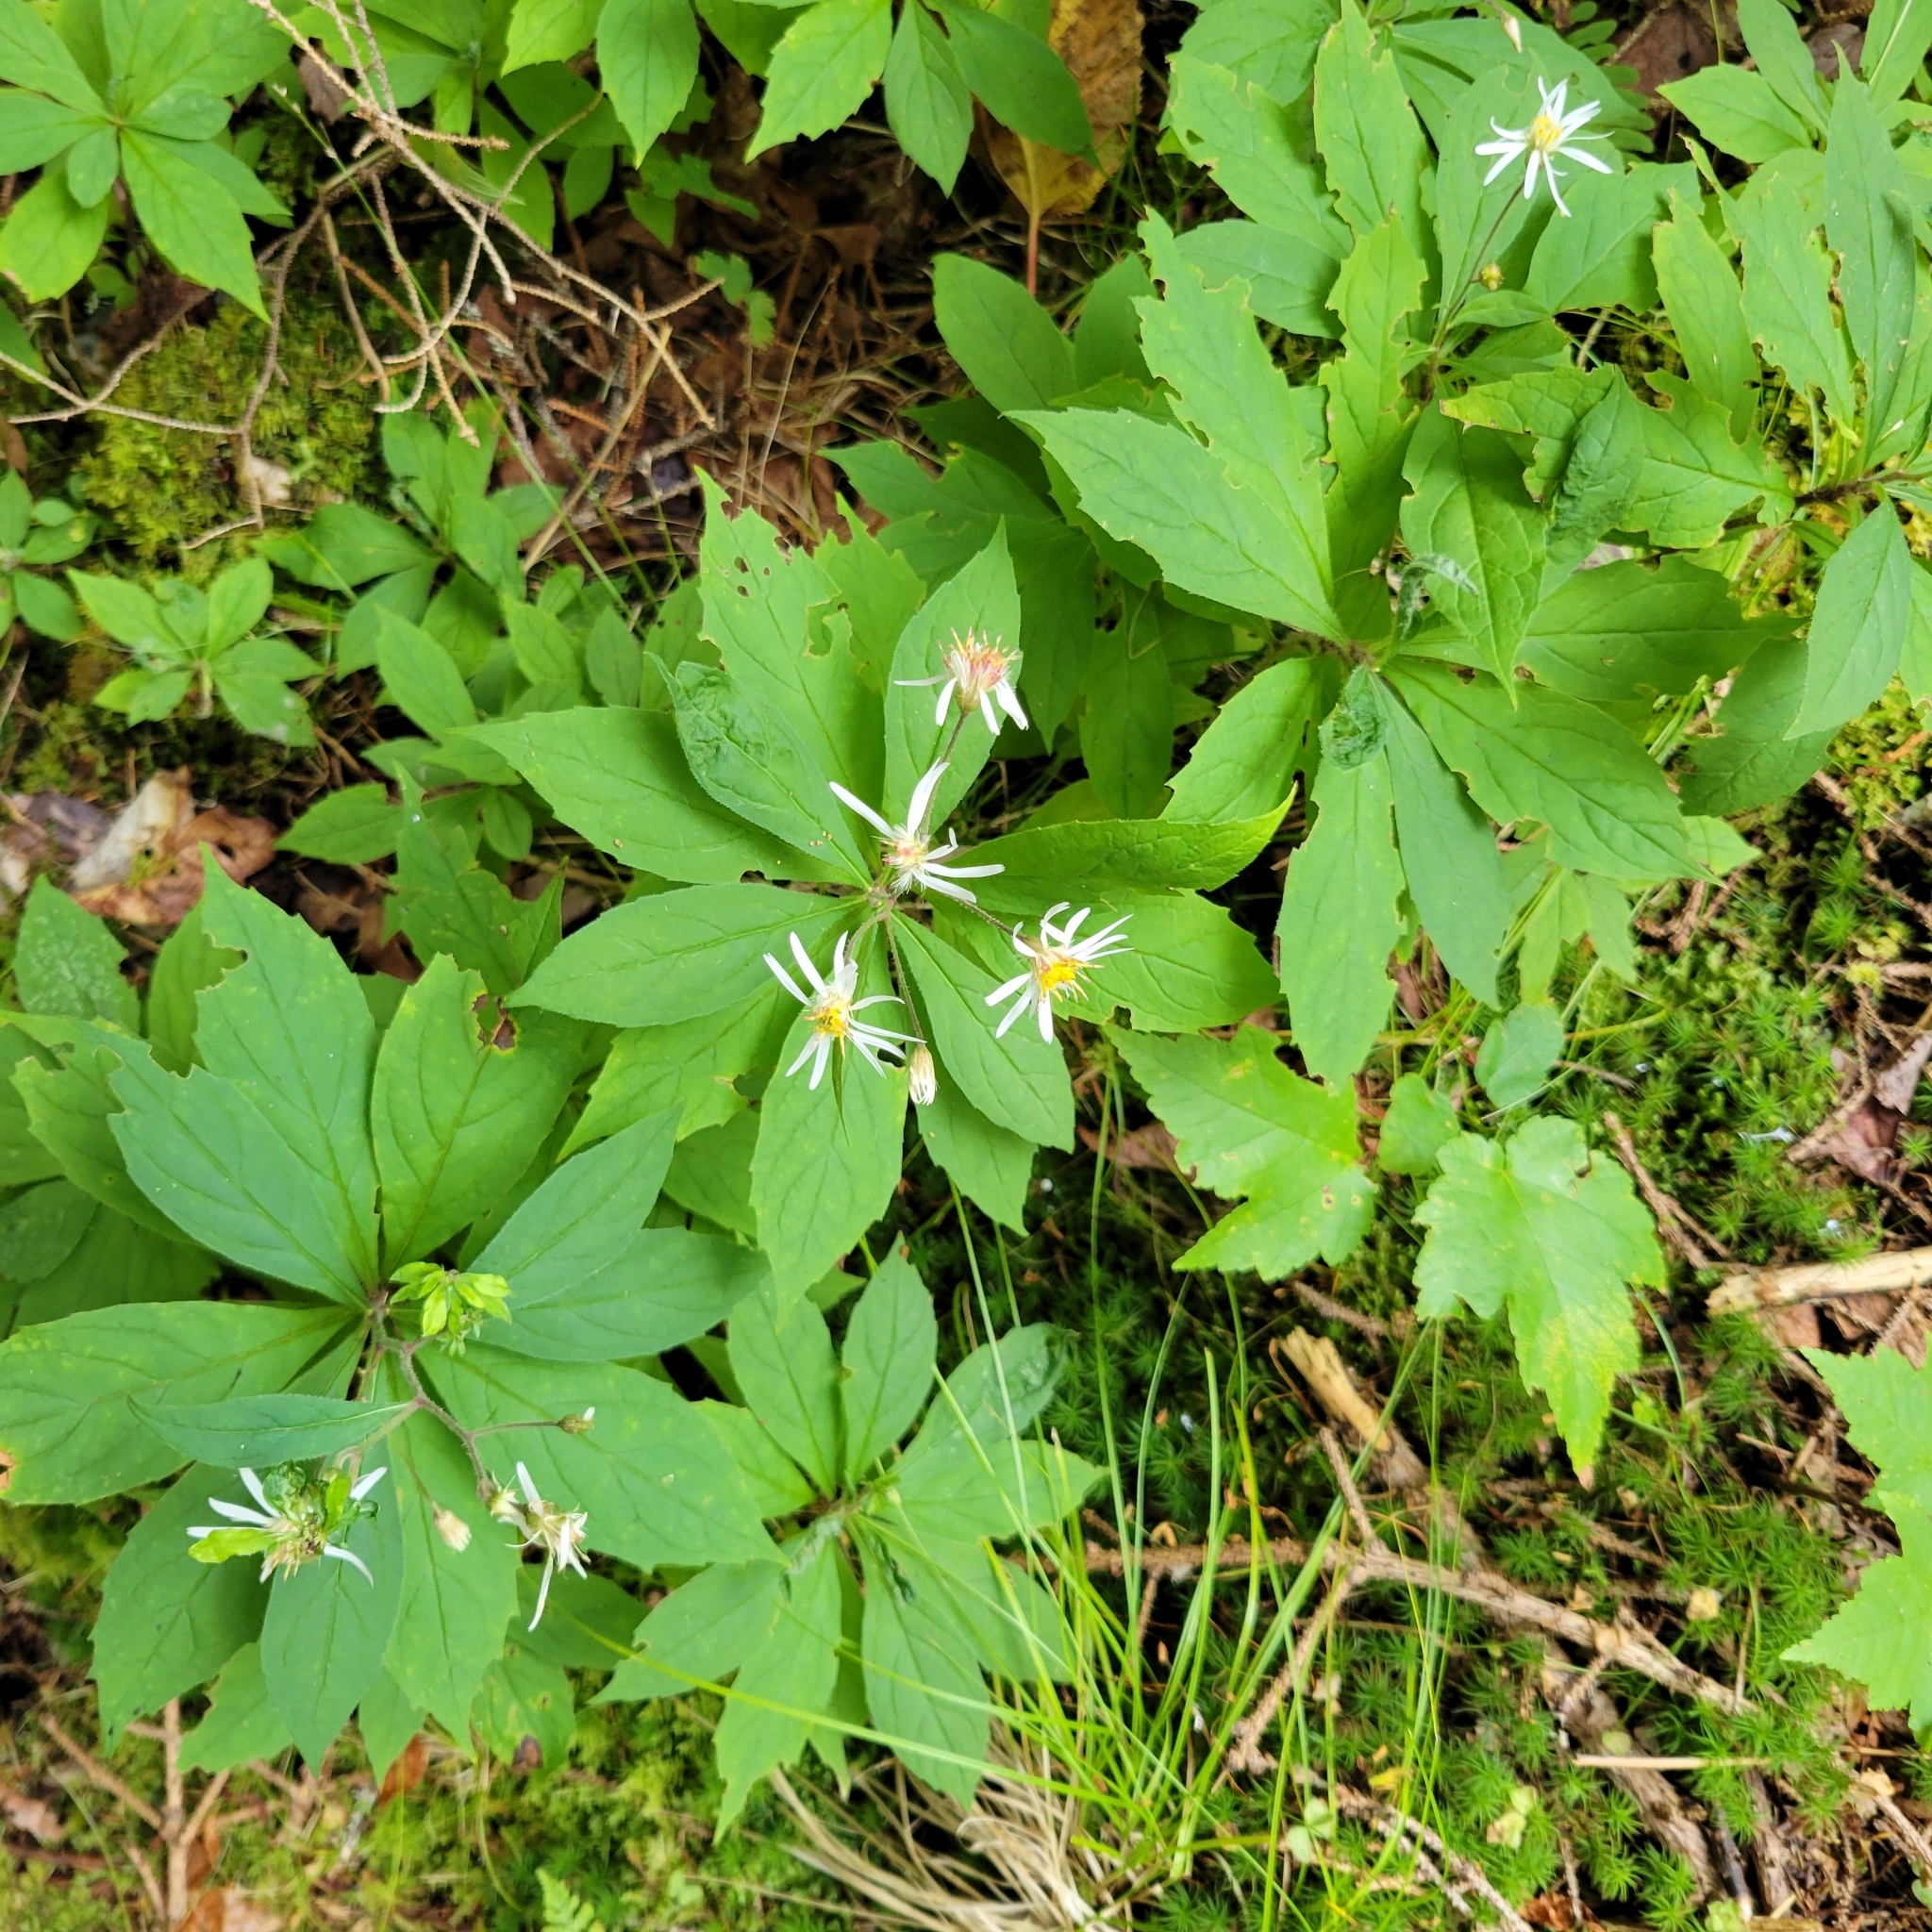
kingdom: Plantae
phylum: Tracheophyta
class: Magnoliopsida
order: Asterales
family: Asteraceae
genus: Oclemena
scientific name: Oclemena acuminata
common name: Mountain aster
